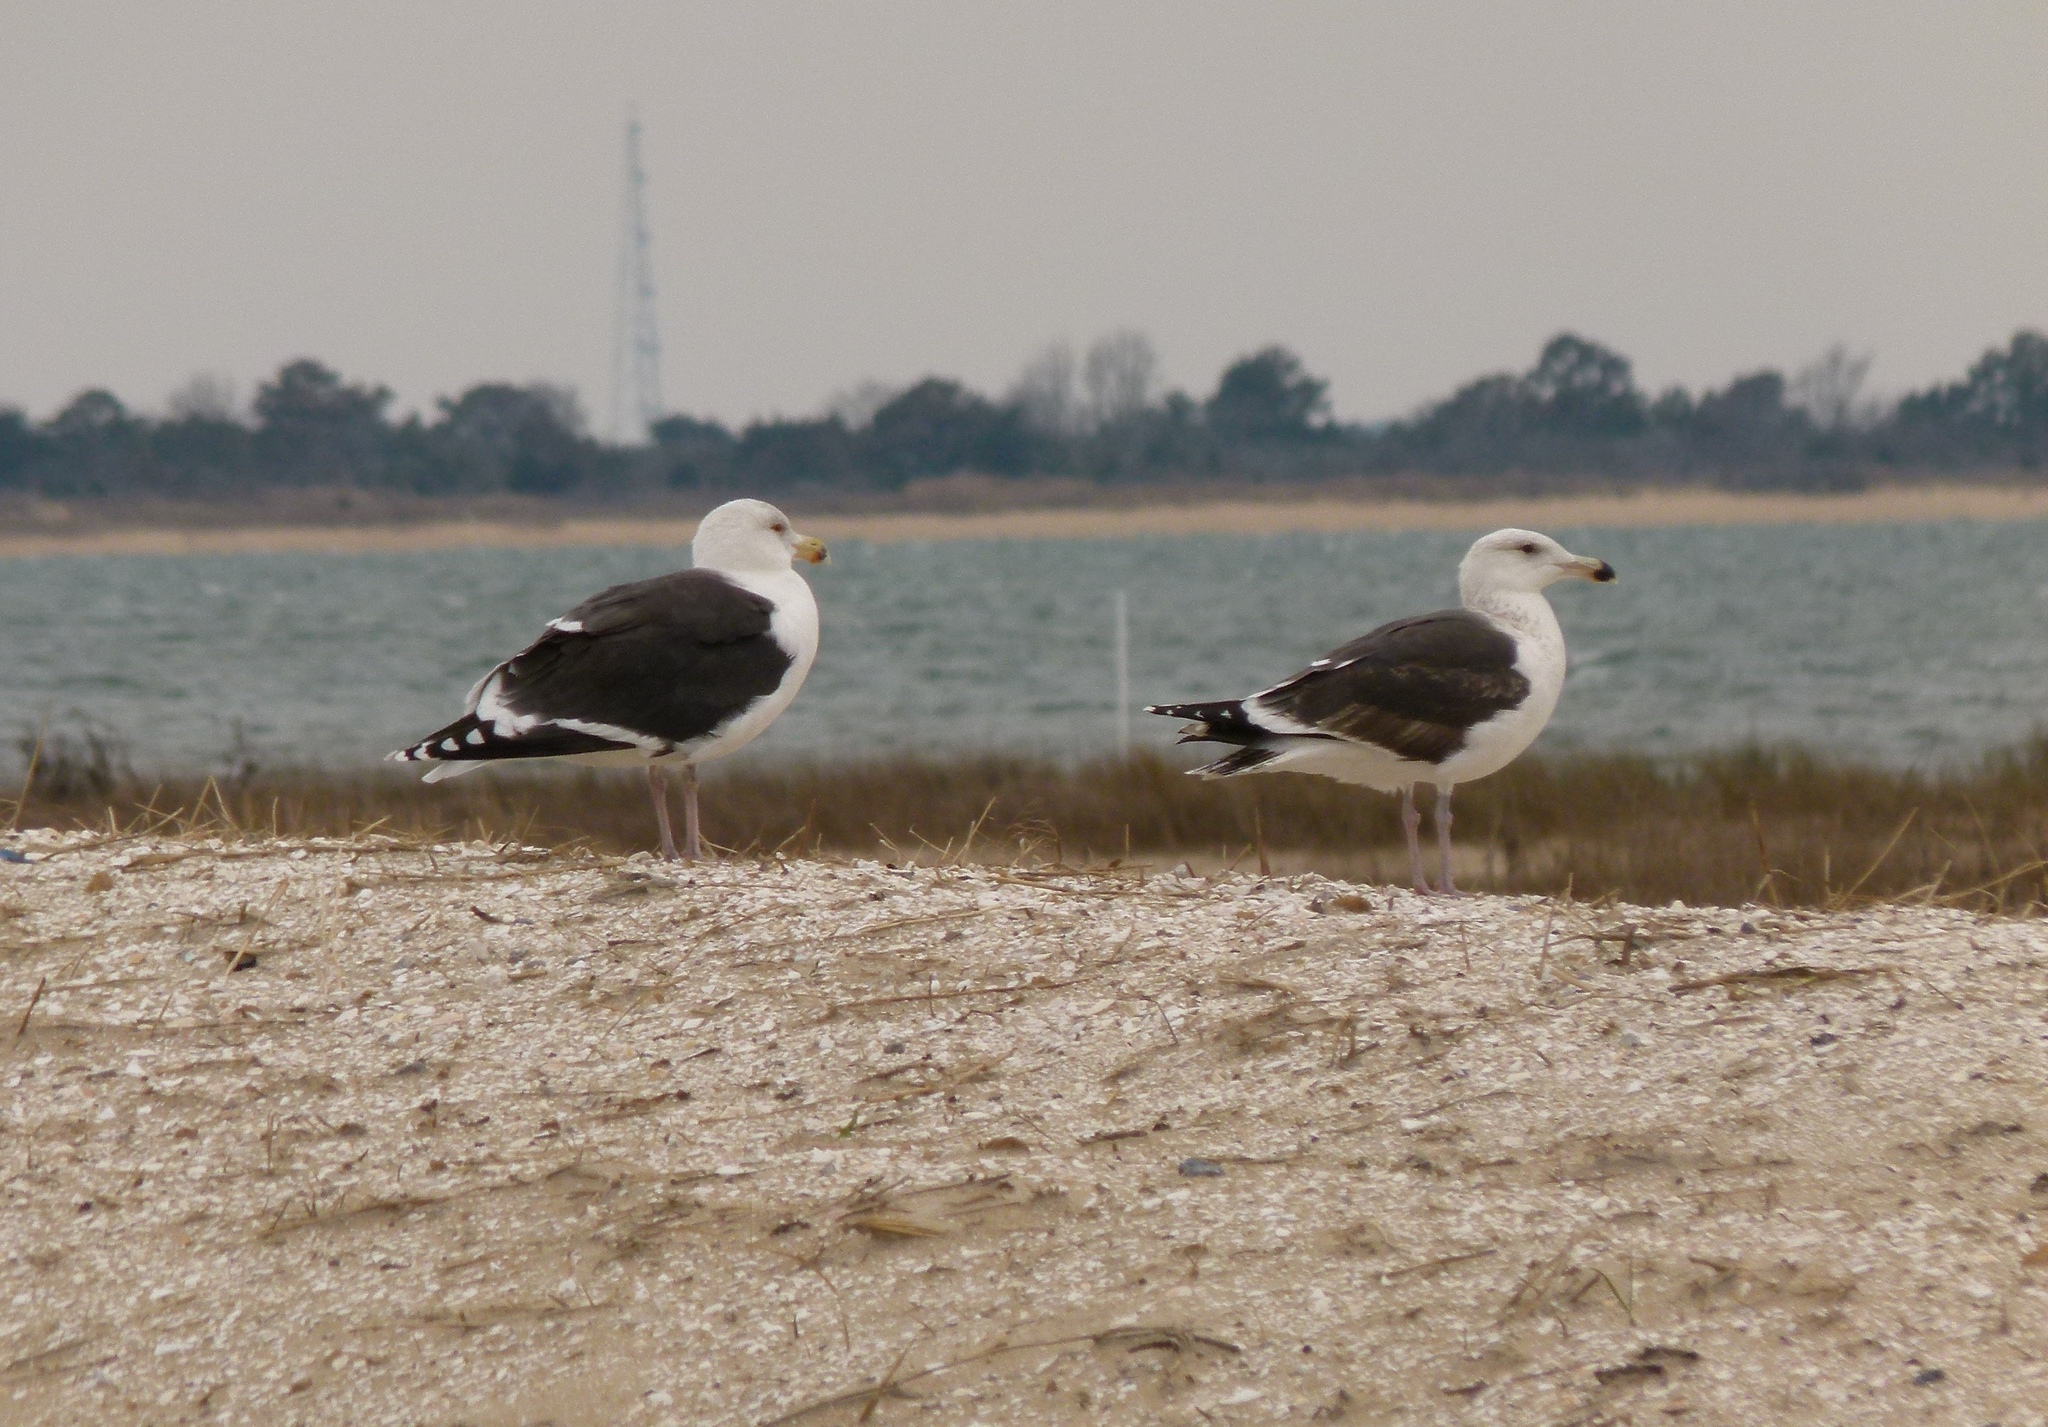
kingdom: Animalia
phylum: Chordata
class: Aves
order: Charadriiformes
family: Laridae
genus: Larus
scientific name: Larus marinus
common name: Great black-backed gull
